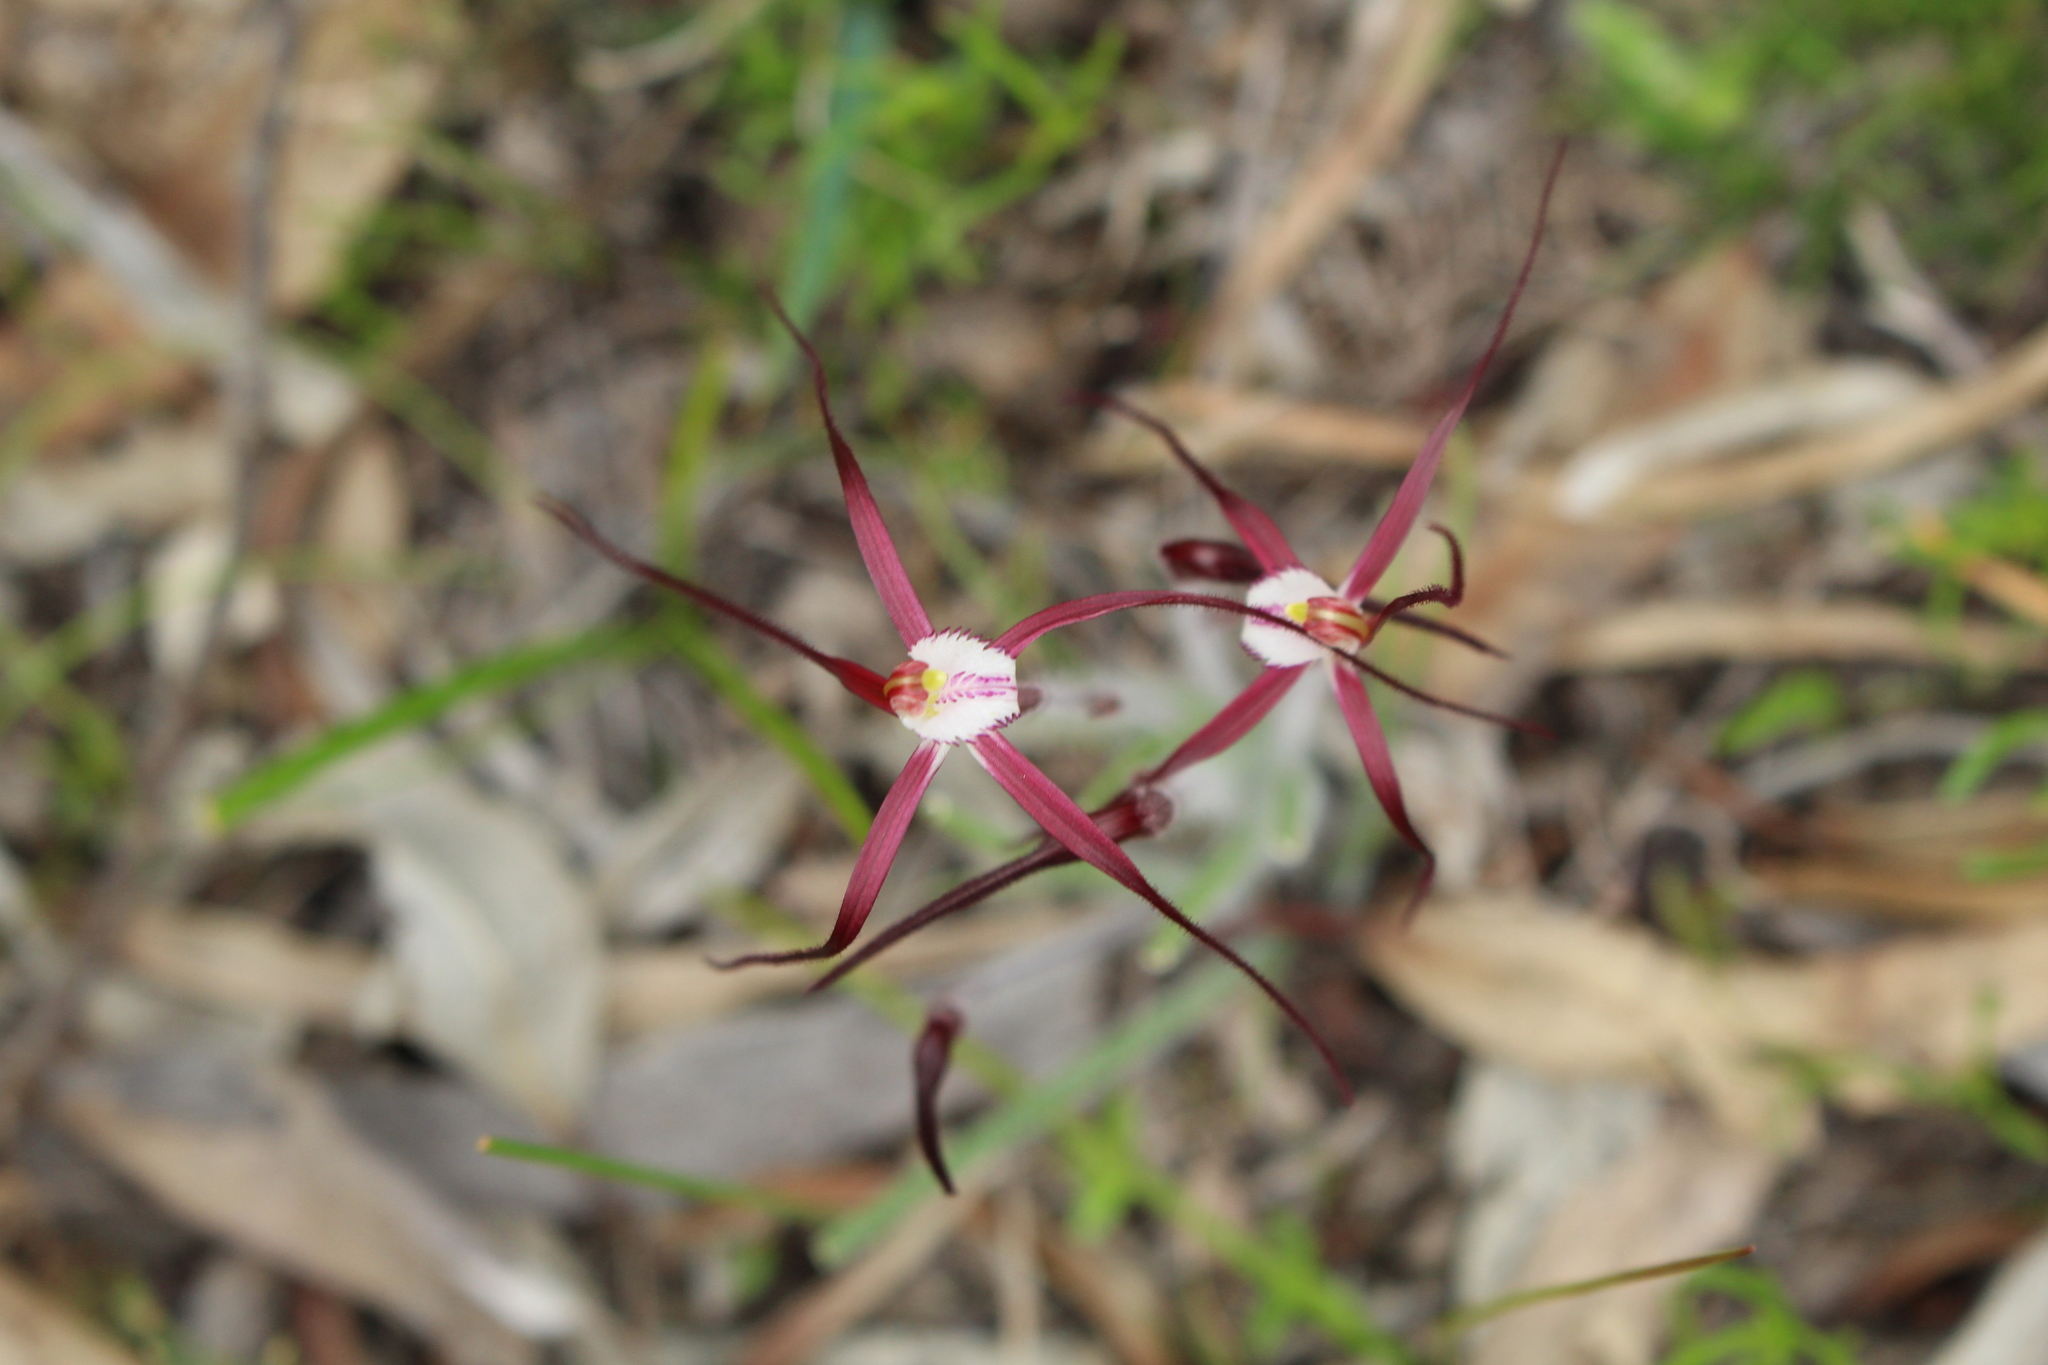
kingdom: Plantae
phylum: Tracheophyta
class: Liliopsida
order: Asparagales
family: Orchidaceae
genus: Caladenia
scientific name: Caladenia denticulata
